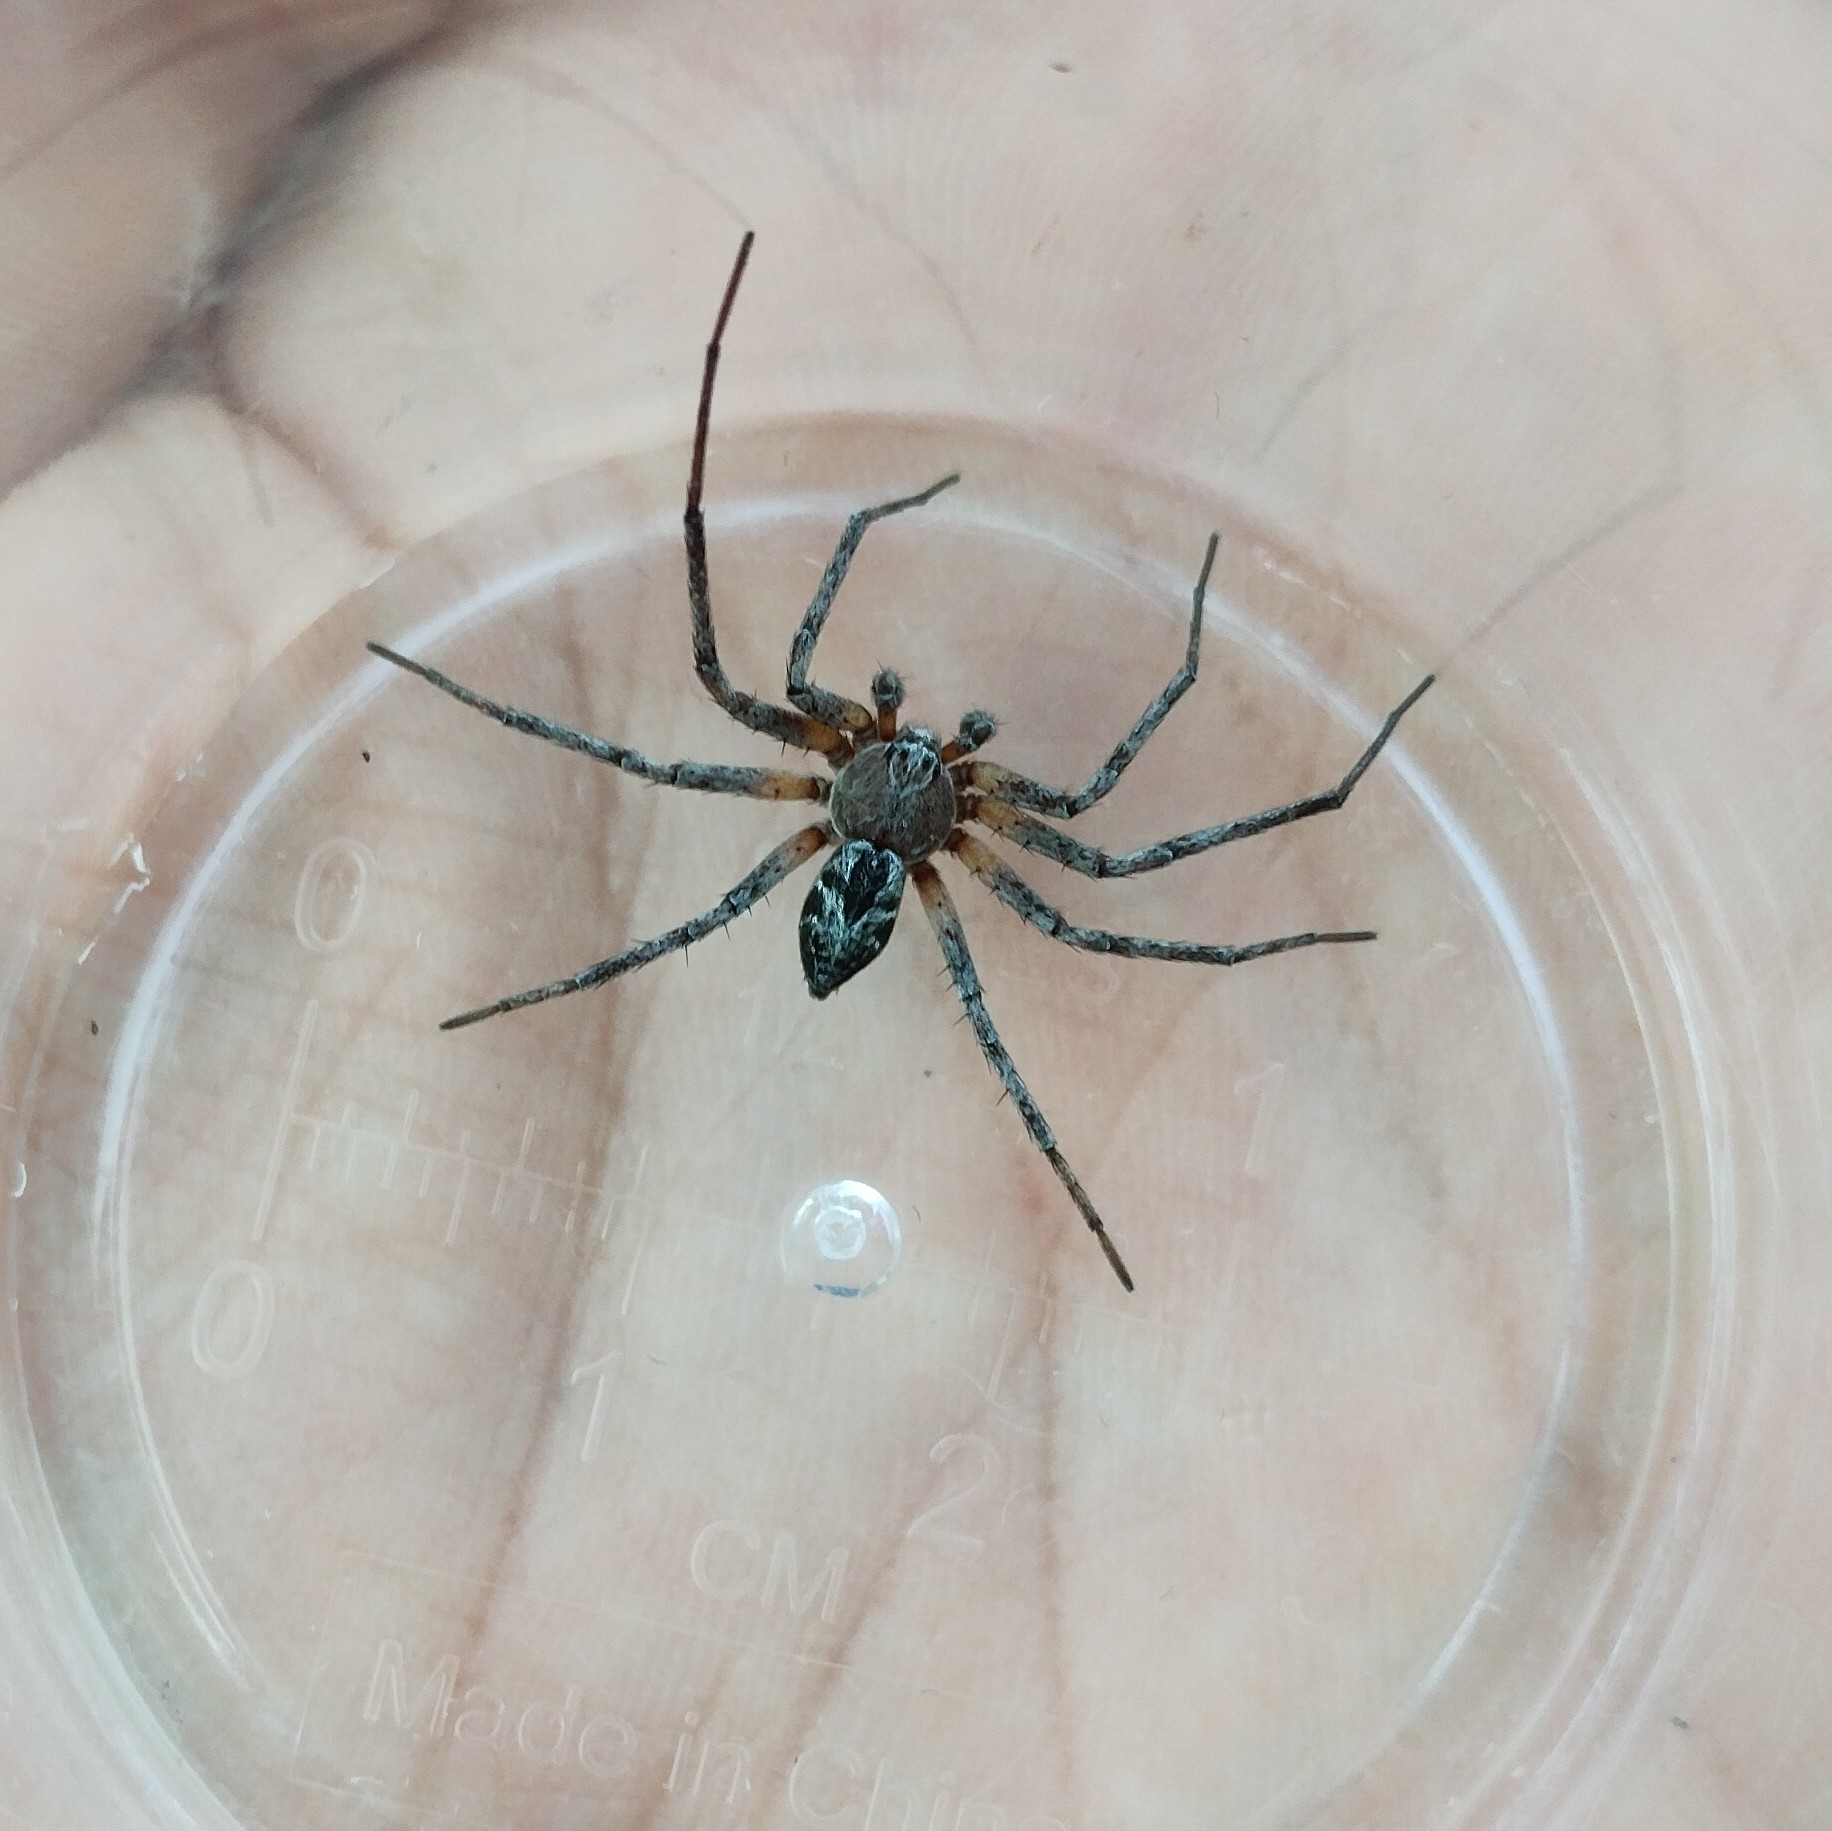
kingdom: Animalia
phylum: Arthropoda
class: Arachnida
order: Araneae
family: Philodromidae
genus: Philodromus
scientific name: Philodromus splendens
